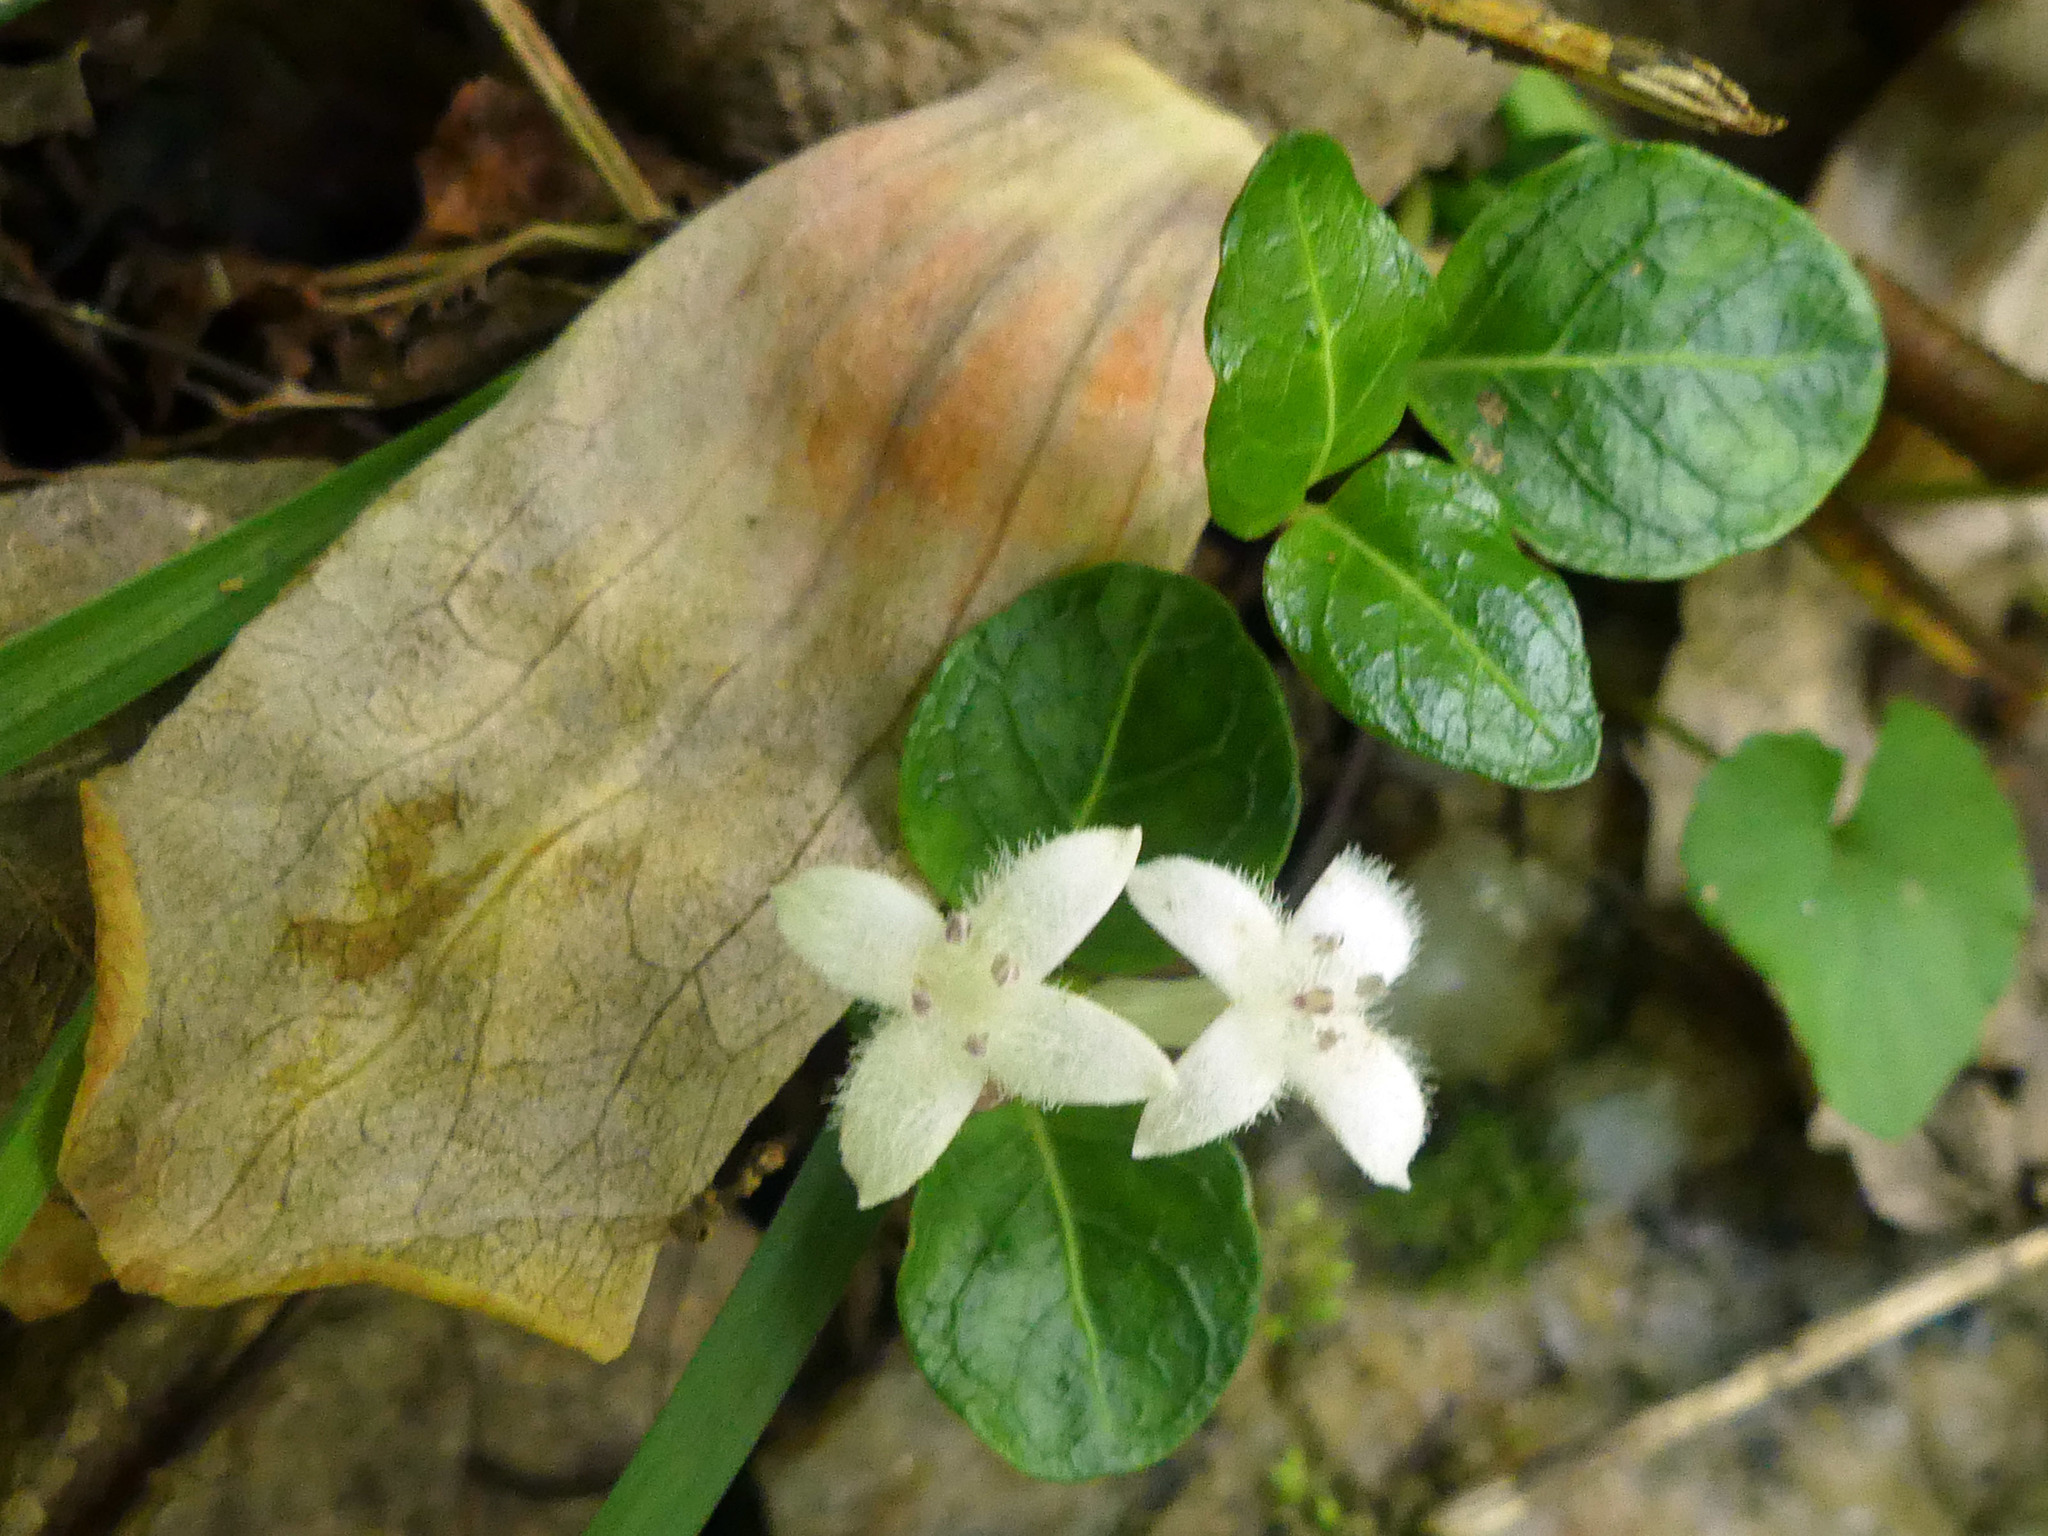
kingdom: Plantae
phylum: Tracheophyta
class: Magnoliopsida
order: Gentianales
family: Rubiaceae
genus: Mitchella
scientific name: Mitchella repens
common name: Partridge-berry
